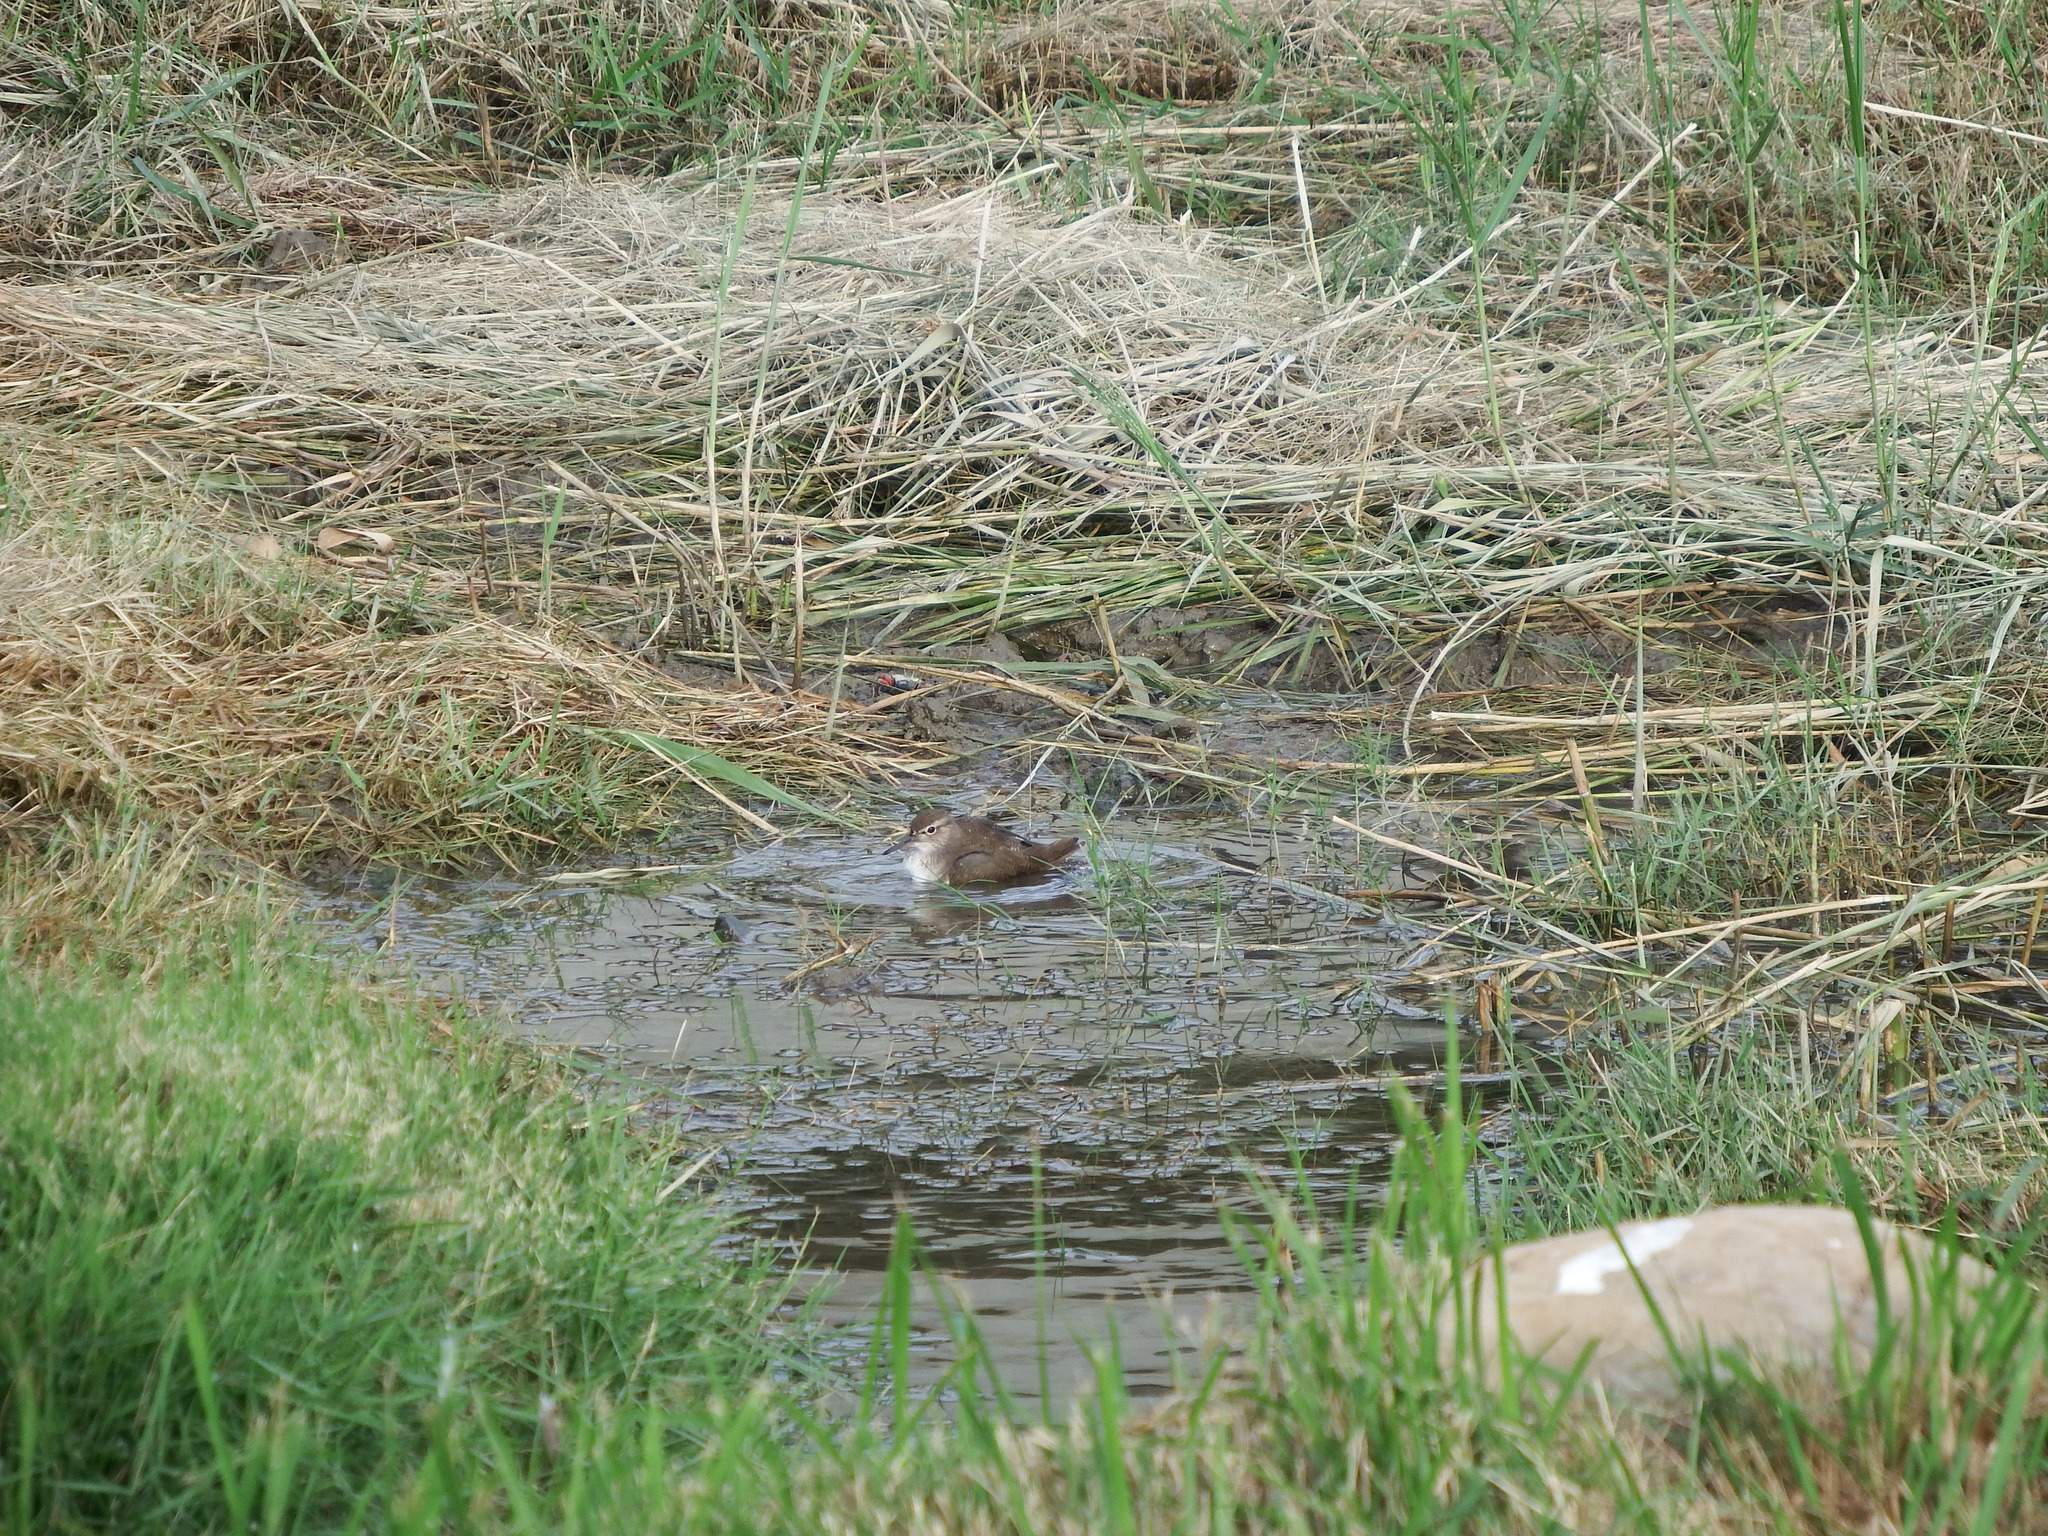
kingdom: Animalia
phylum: Chordata
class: Aves
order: Charadriiformes
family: Scolopacidae
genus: Actitis
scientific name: Actitis hypoleucos
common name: Common sandpiper
